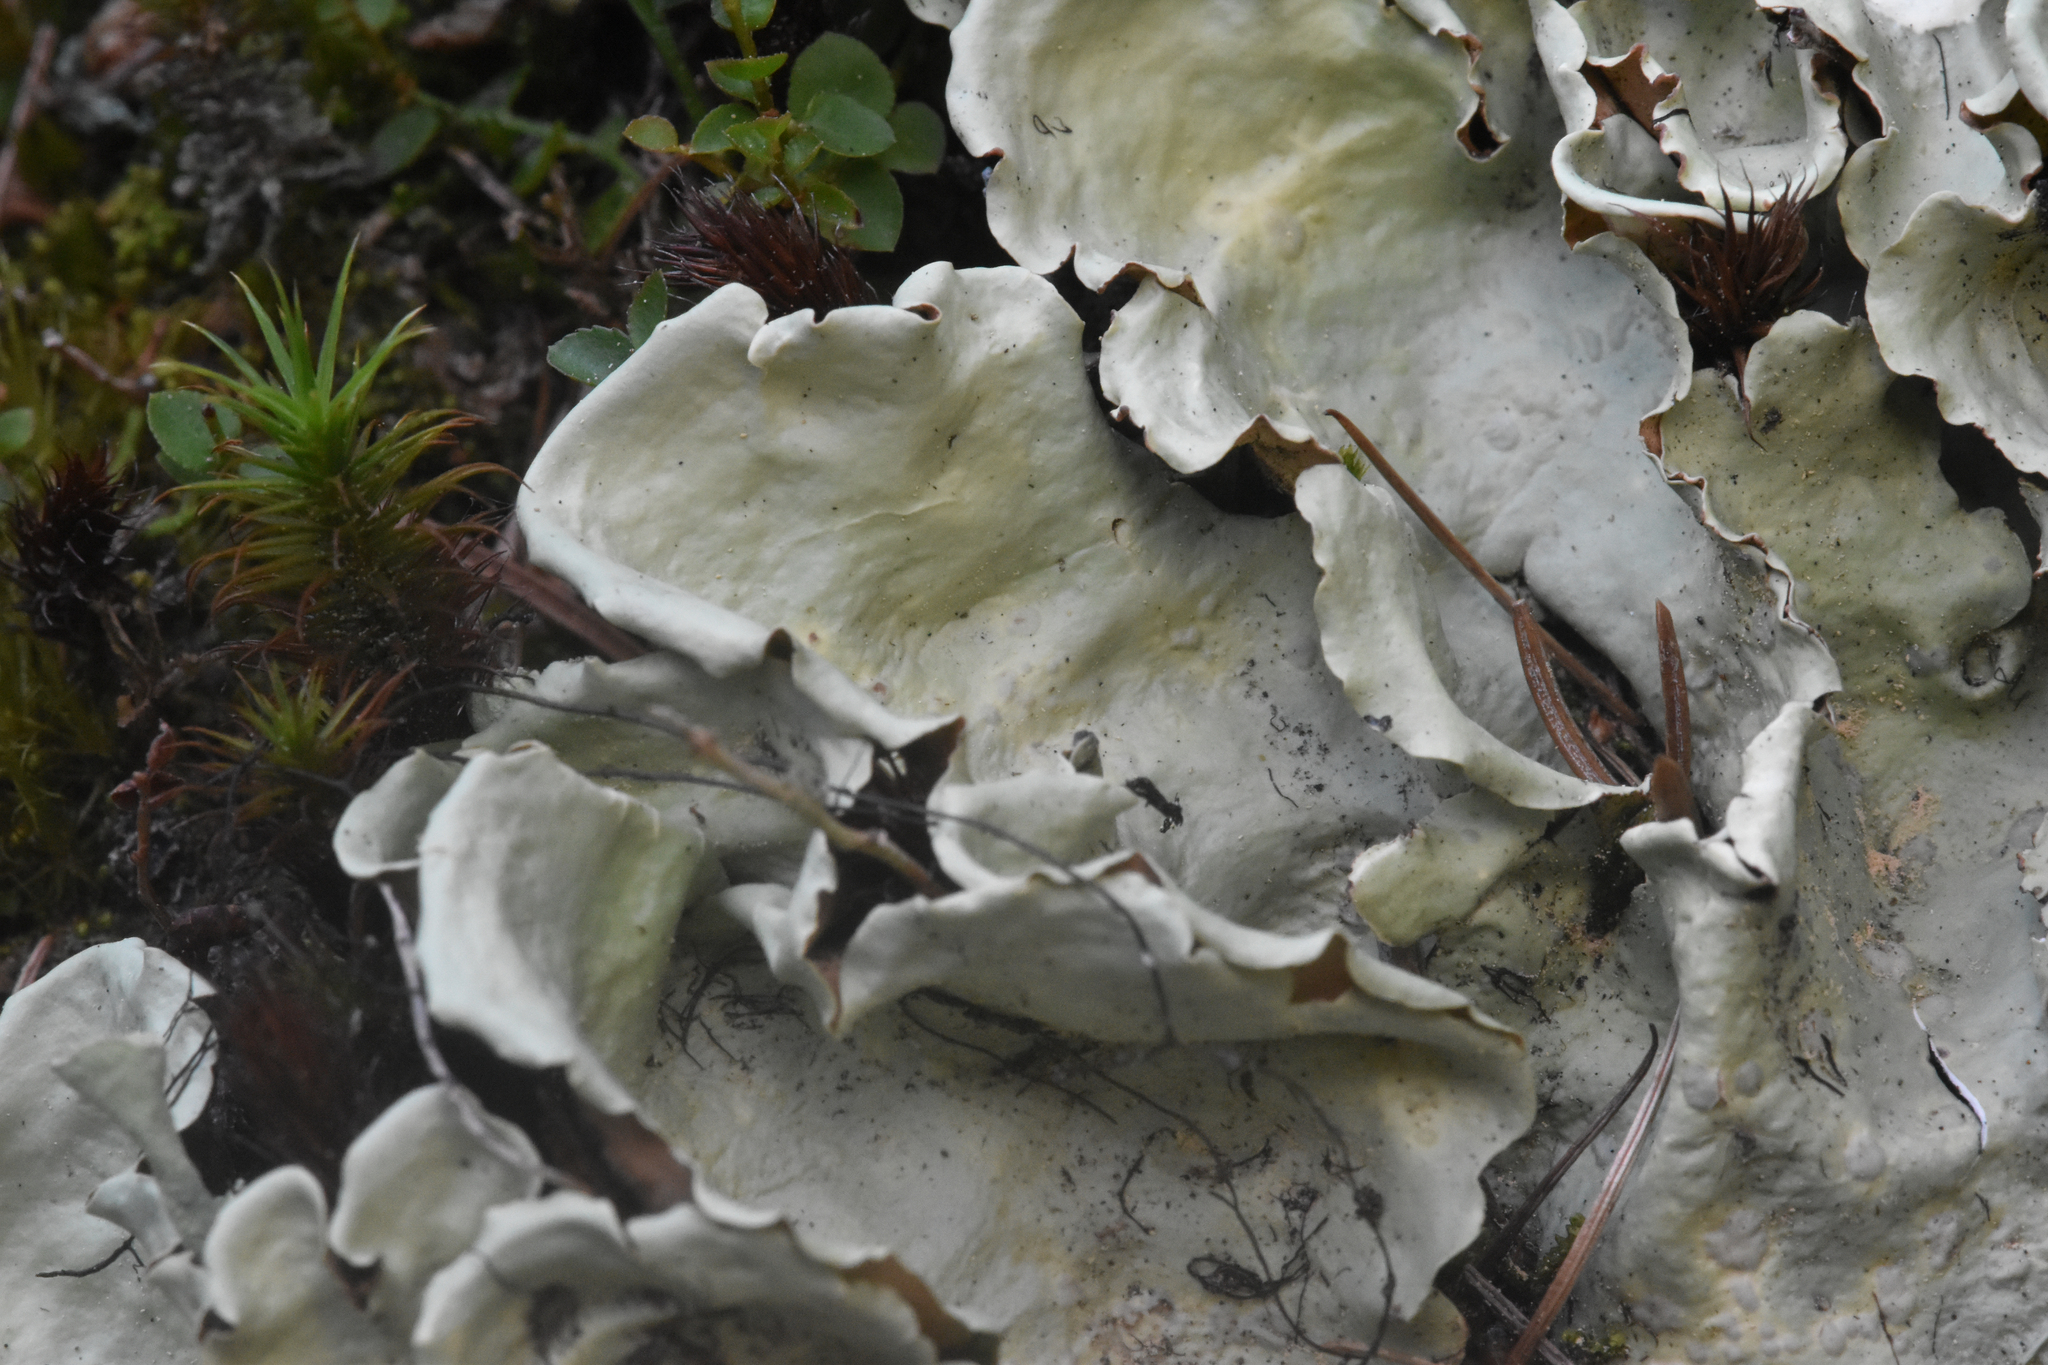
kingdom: Fungi
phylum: Ascomycota
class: Lecanoromycetes
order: Peltigerales
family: Nephromataceae
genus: Nephroma
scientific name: Nephroma arcticum
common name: Arctic kidney-lichen
